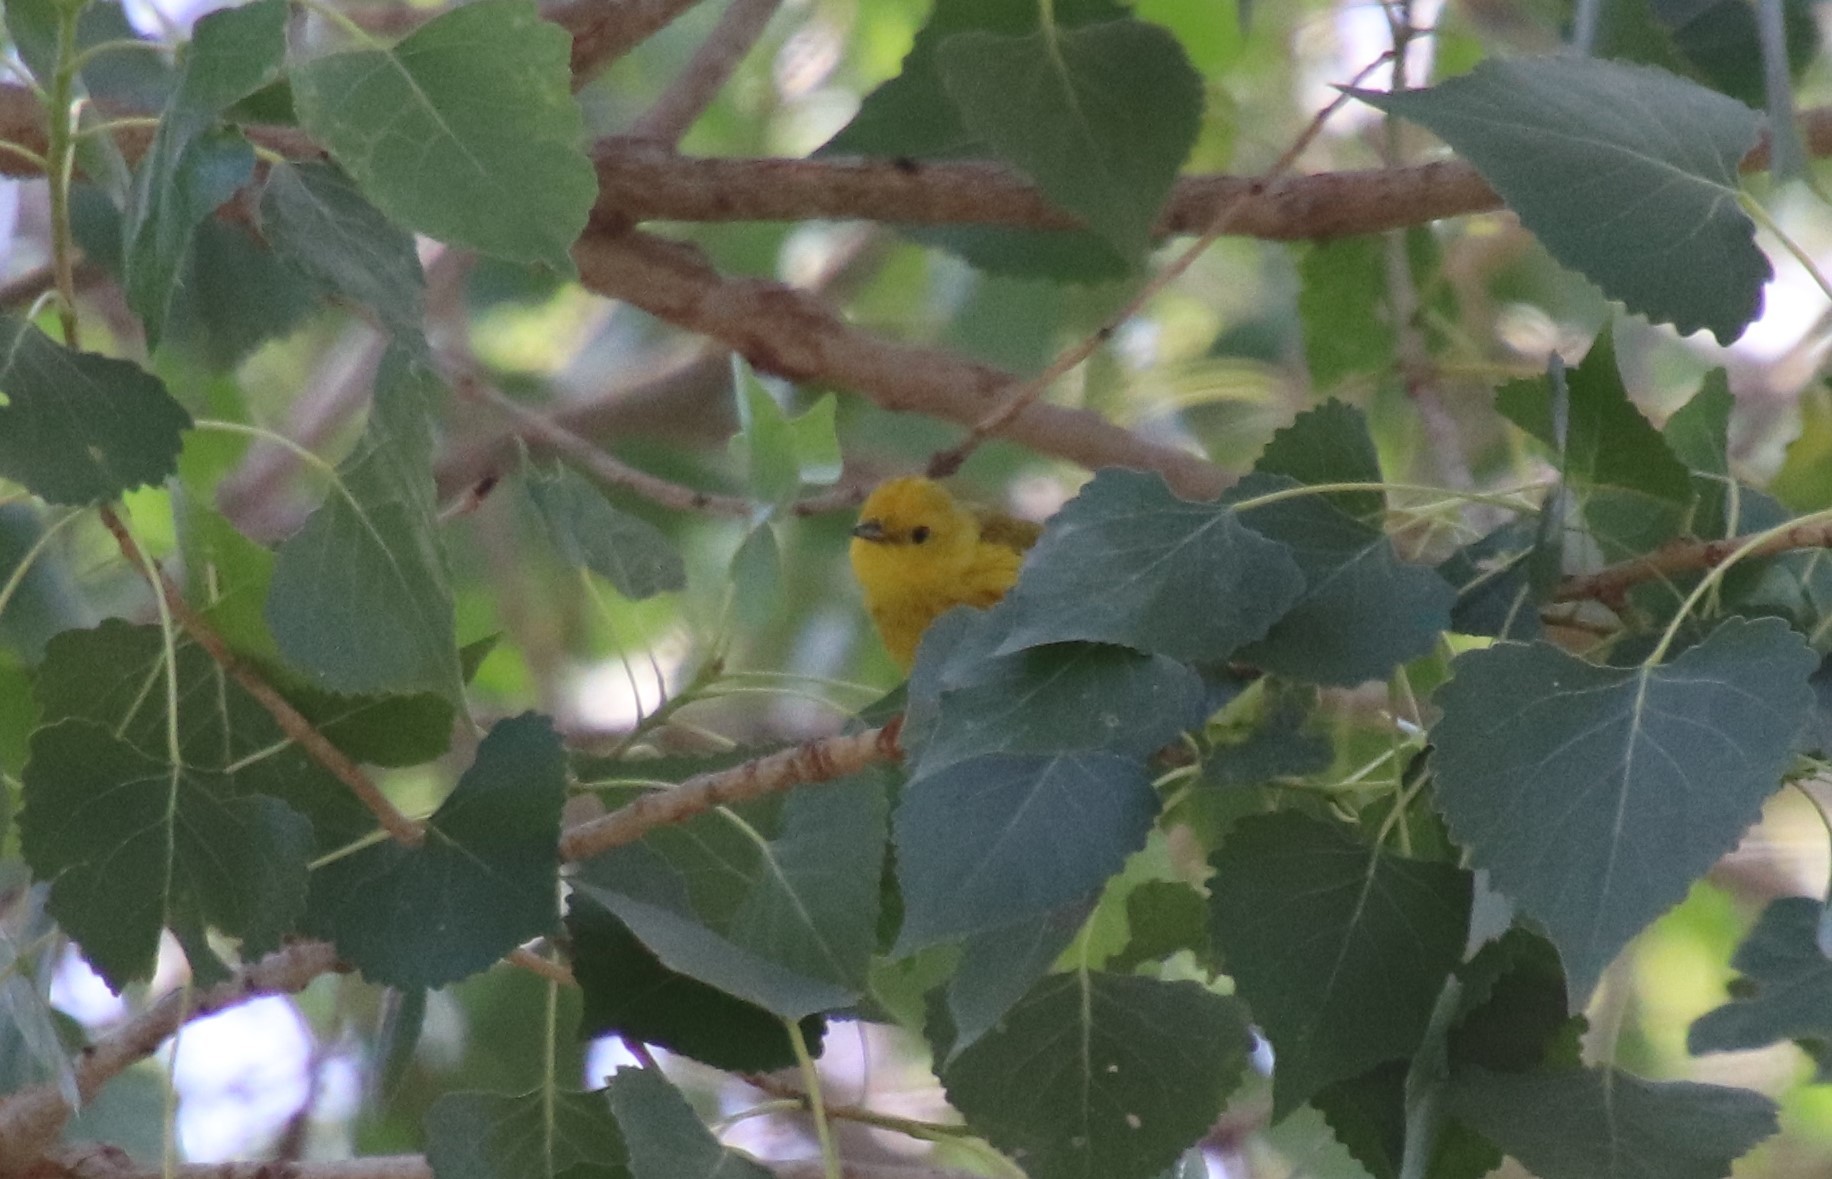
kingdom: Animalia
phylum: Chordata
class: Aves
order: Passeriformes
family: Parulidae
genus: Setophaga
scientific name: Setophaga petechia
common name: Yellow warbler
